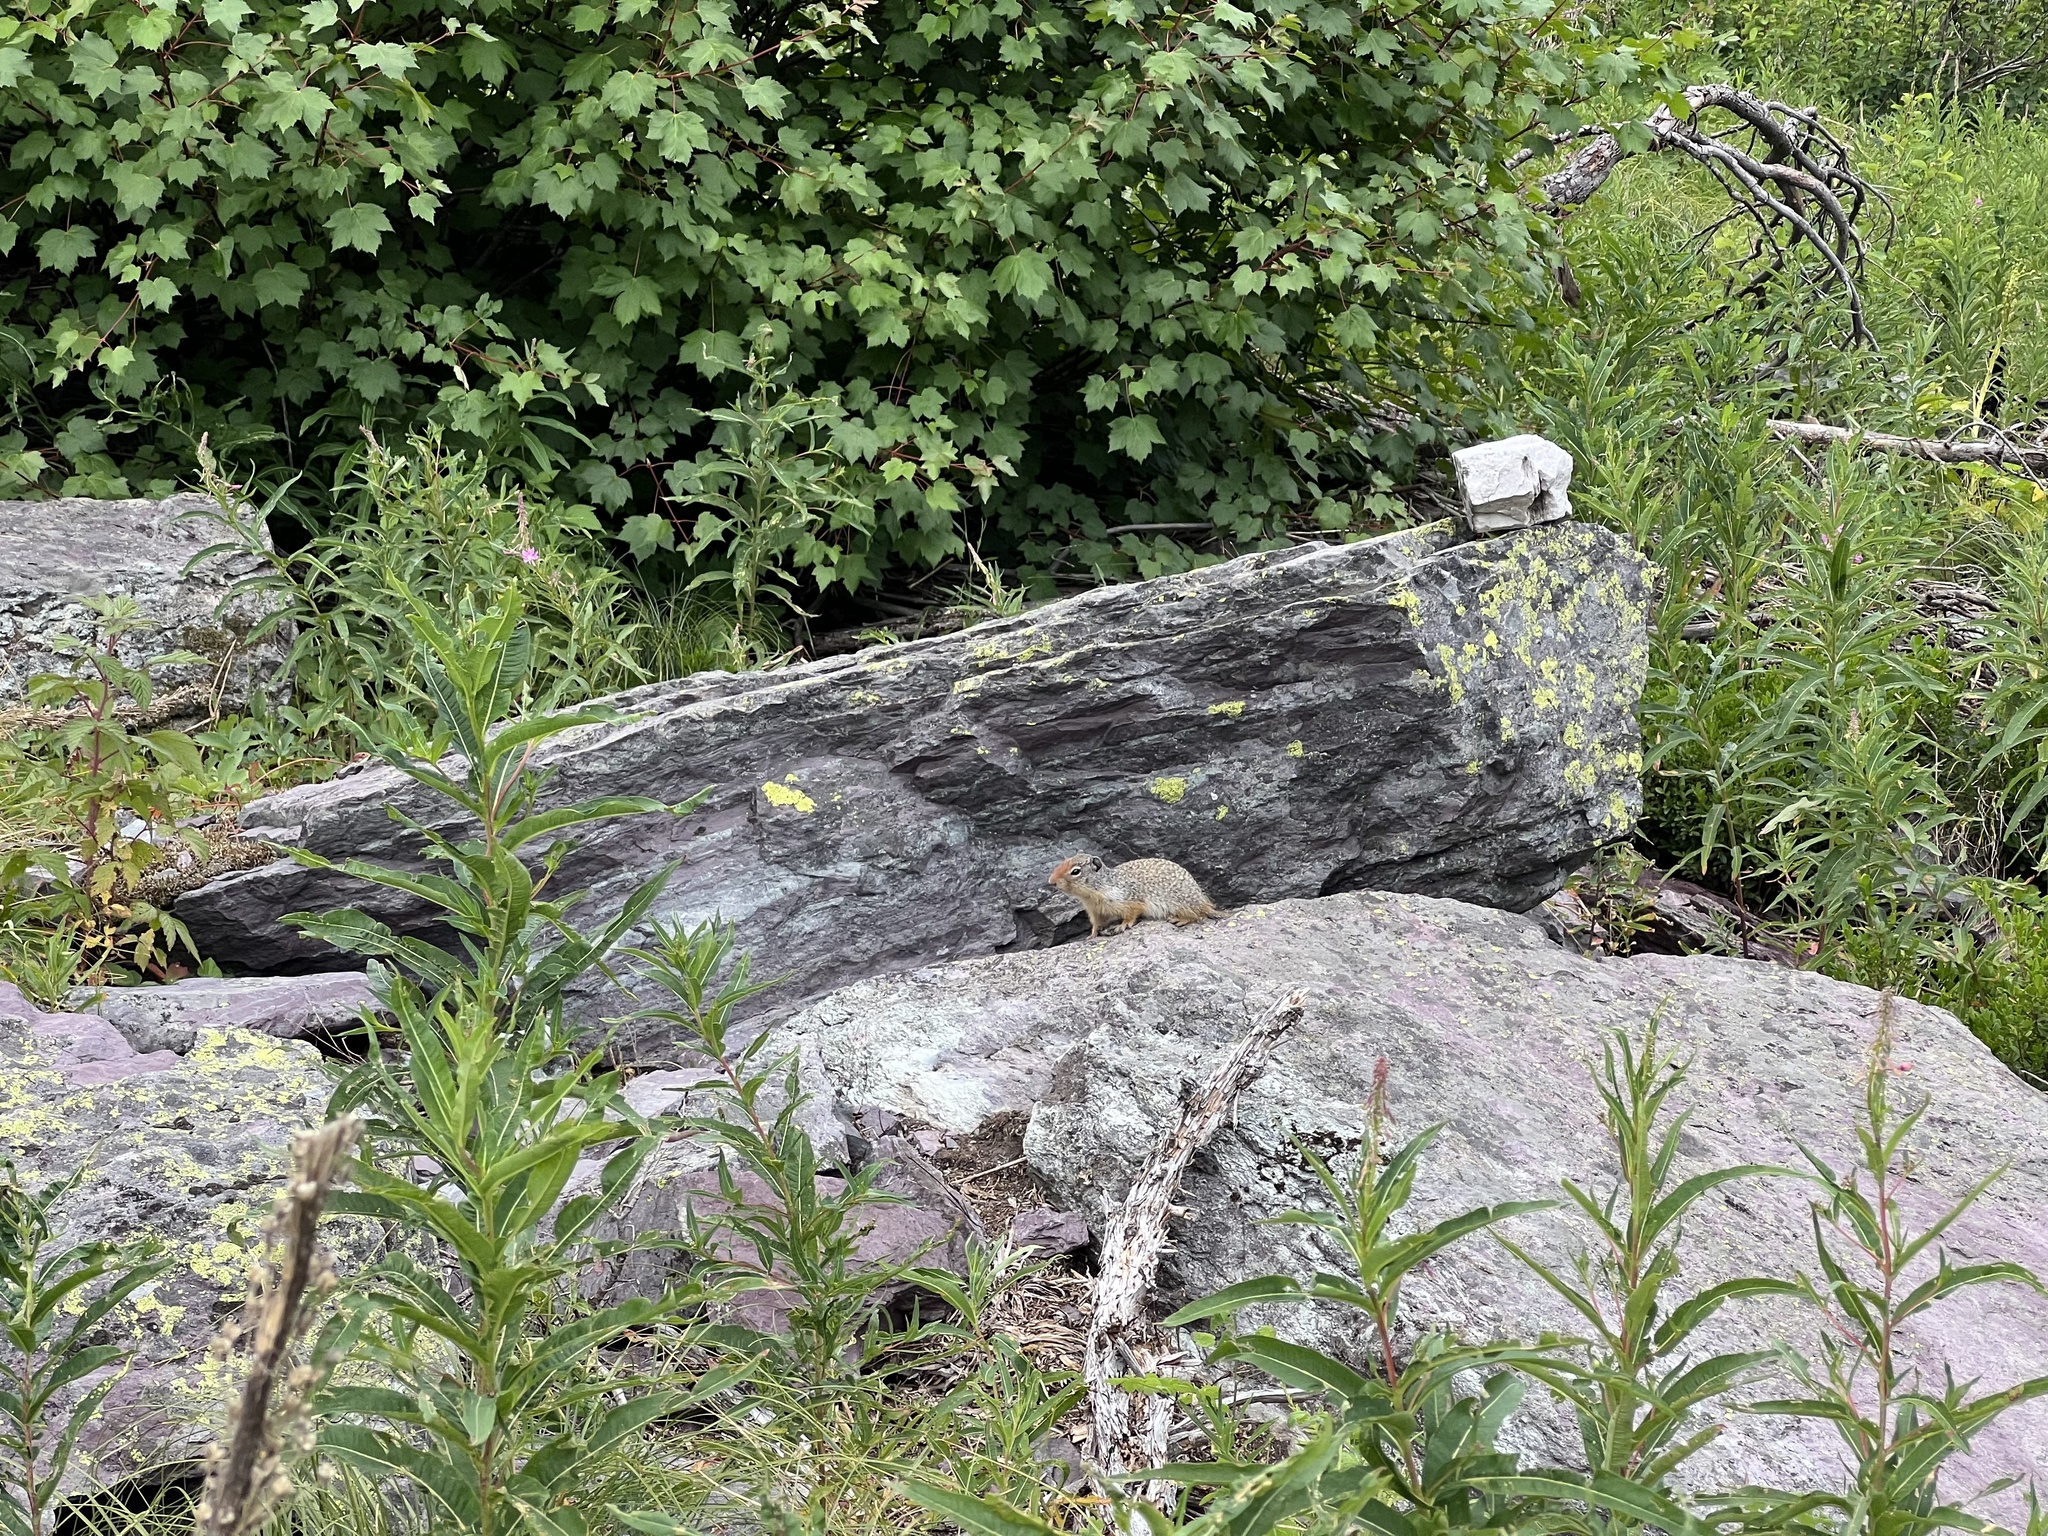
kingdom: Animalia
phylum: Chordata
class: Mammalia
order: Rodentia
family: Sciuridae
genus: Urocitellus
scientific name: Urocitellus columbianus
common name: Columbian ground squirrel
